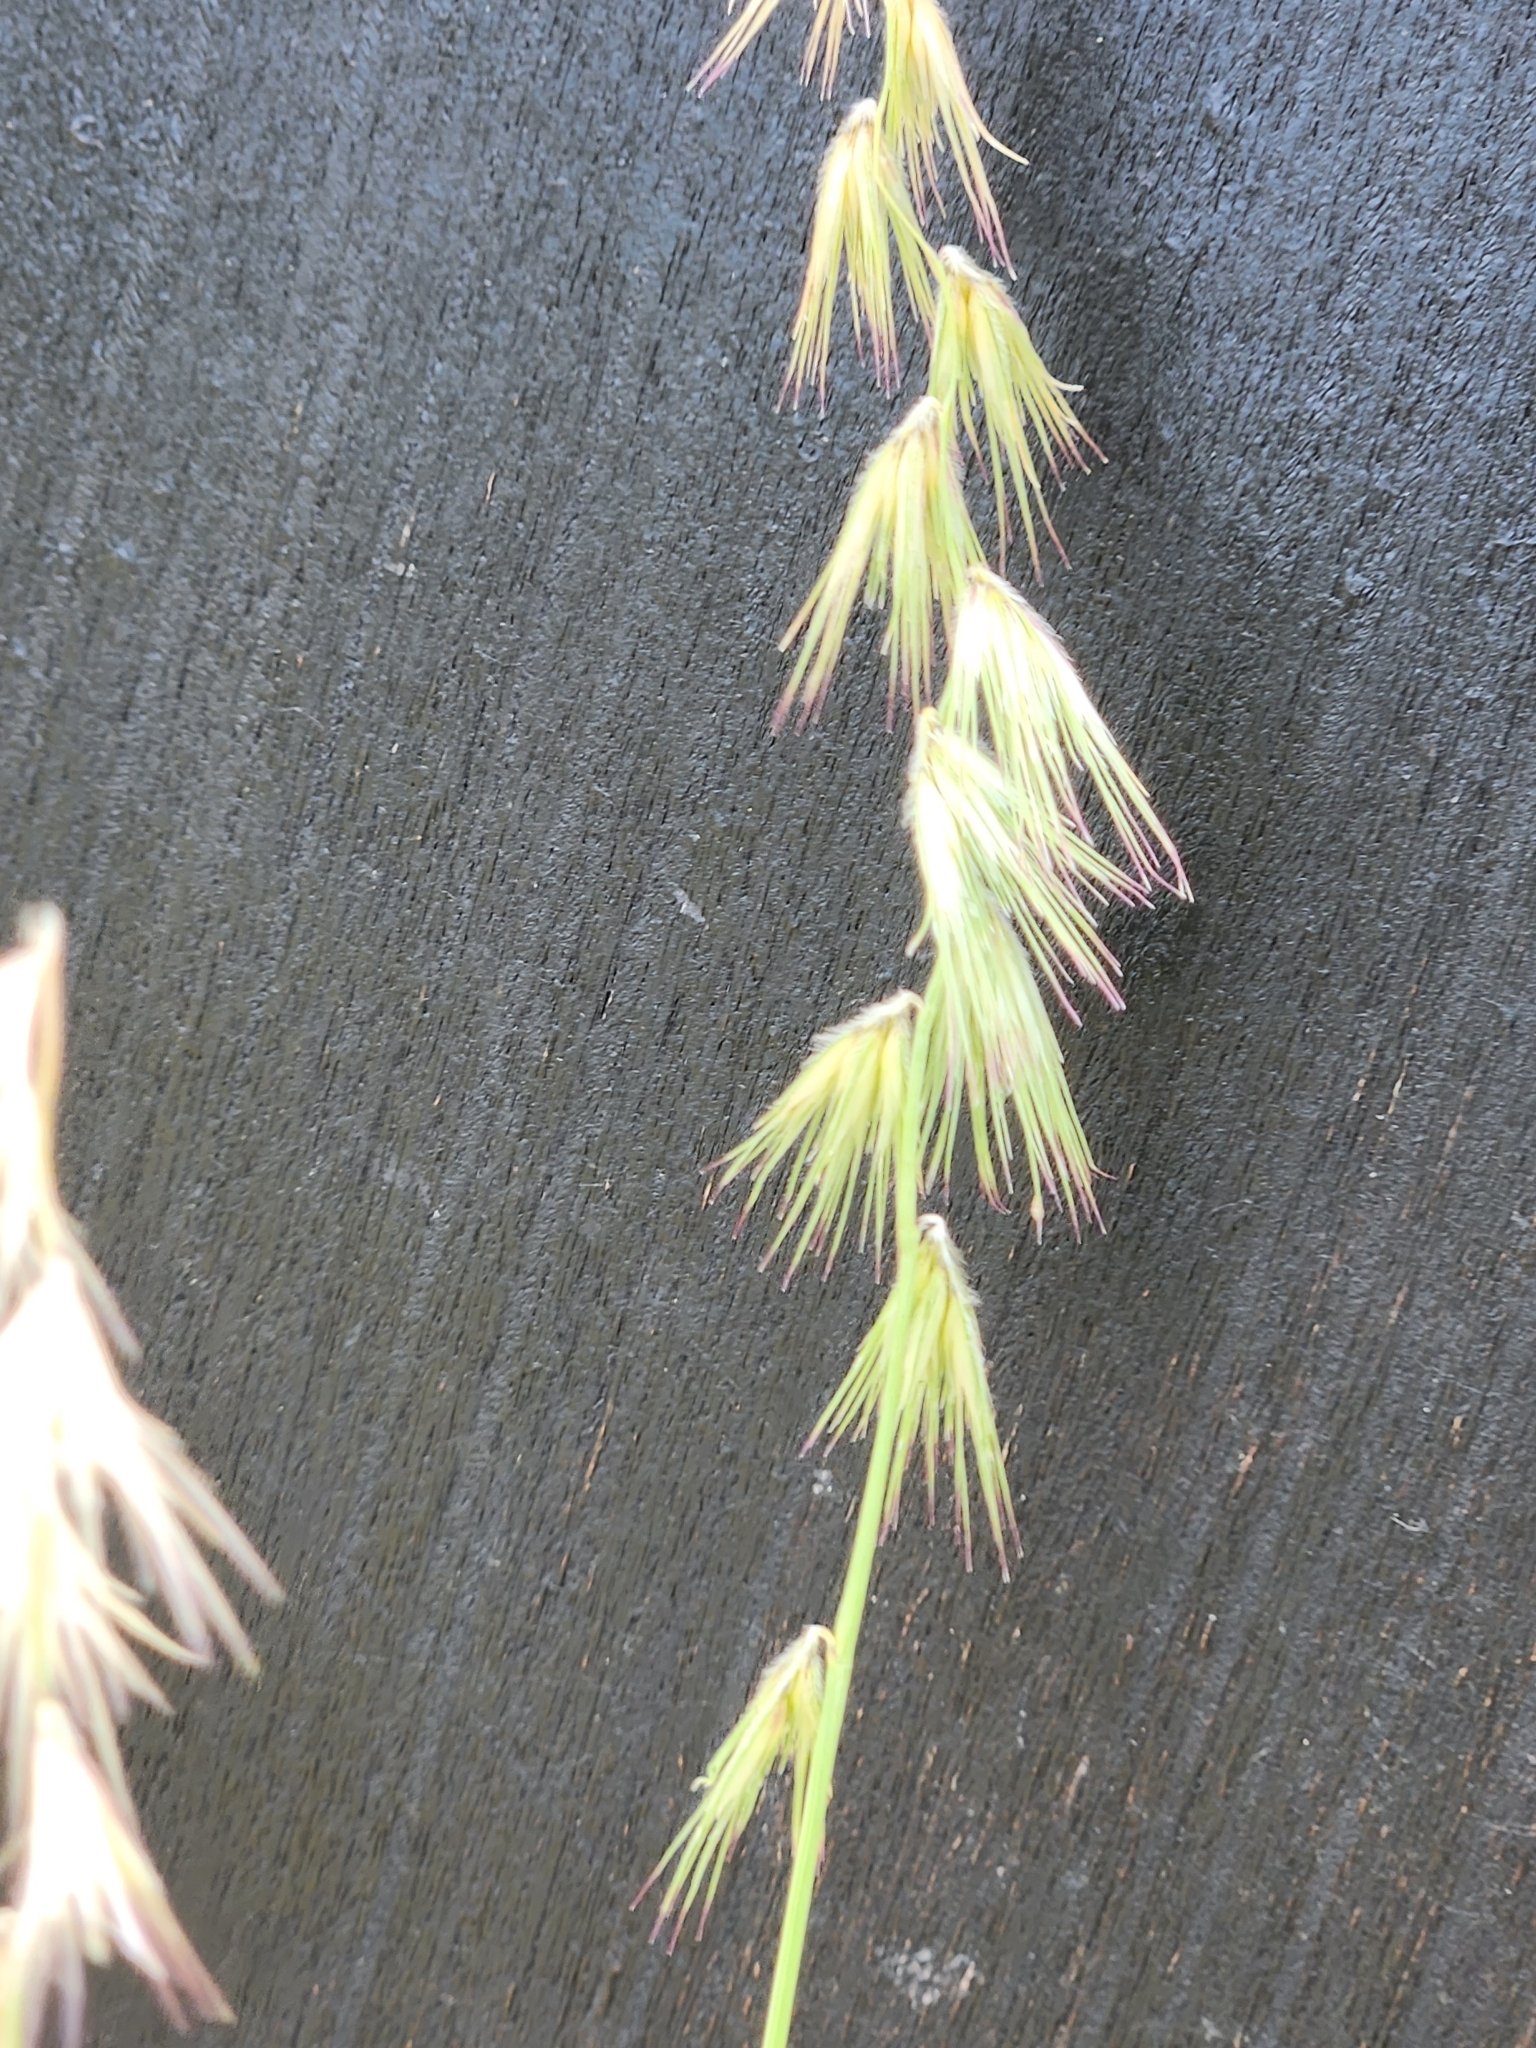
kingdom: Plantae
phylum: Tracheophyta
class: Liliopsida
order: Poales
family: Poaceae
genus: Bouteloua
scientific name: Bouteloua rigidiseta
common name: Texas grama
